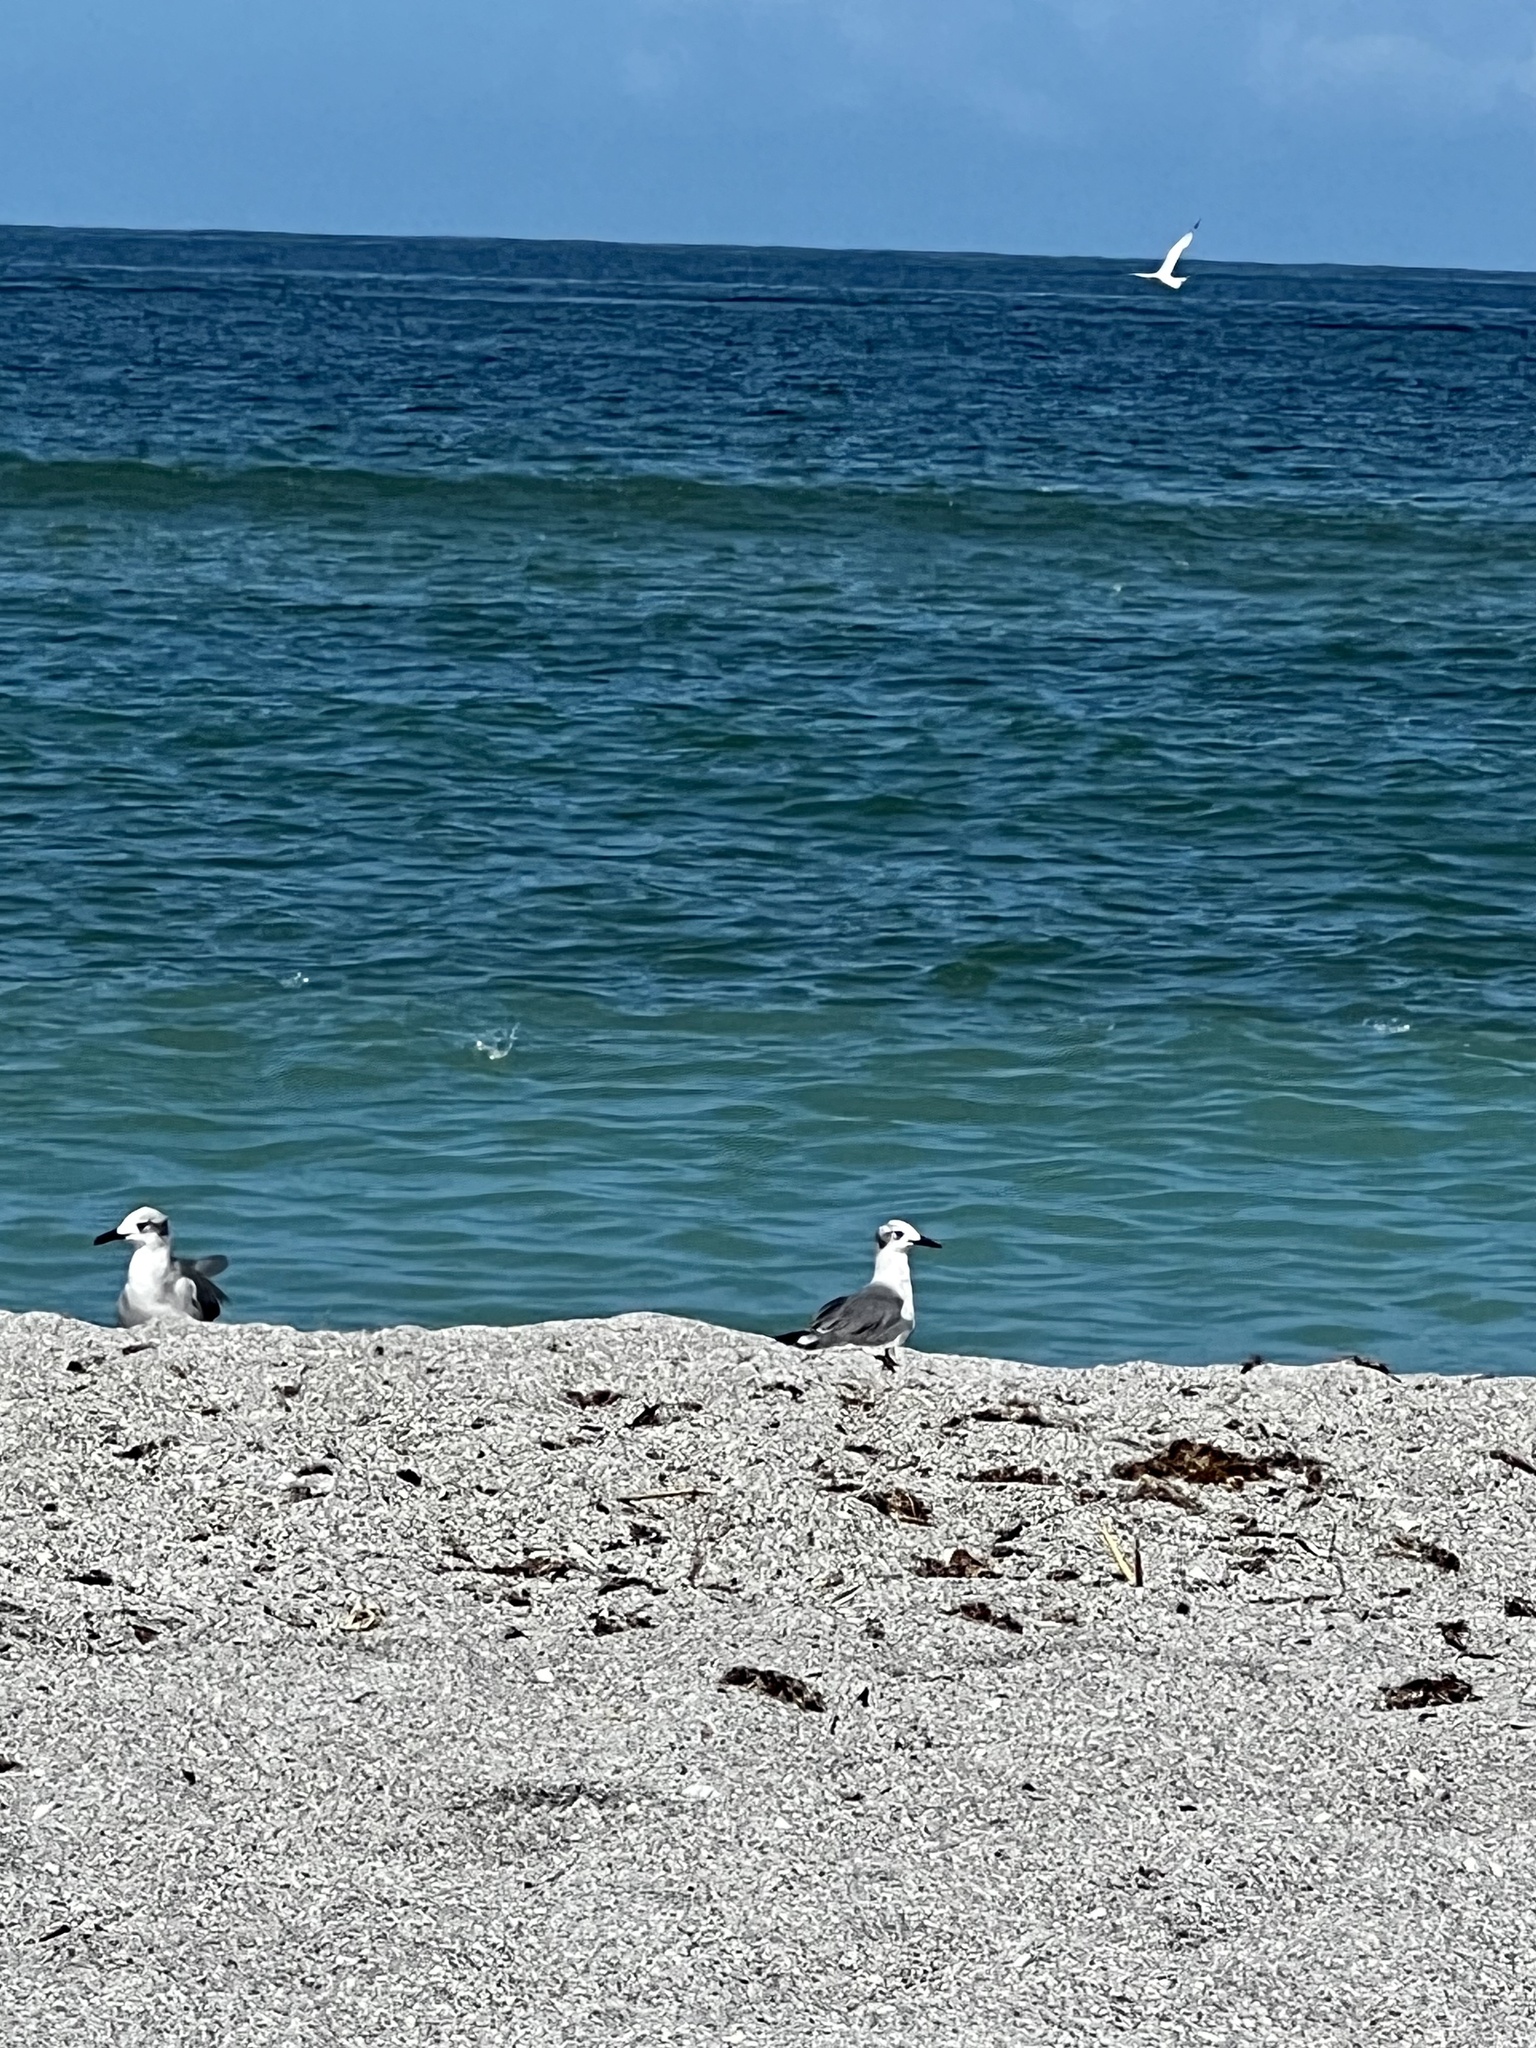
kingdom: Animalia
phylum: Chordata
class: Aves
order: Charadriiformes
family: Laridae
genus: Leucophaeus
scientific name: Leucophaeus atricilla
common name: Laughing gull
